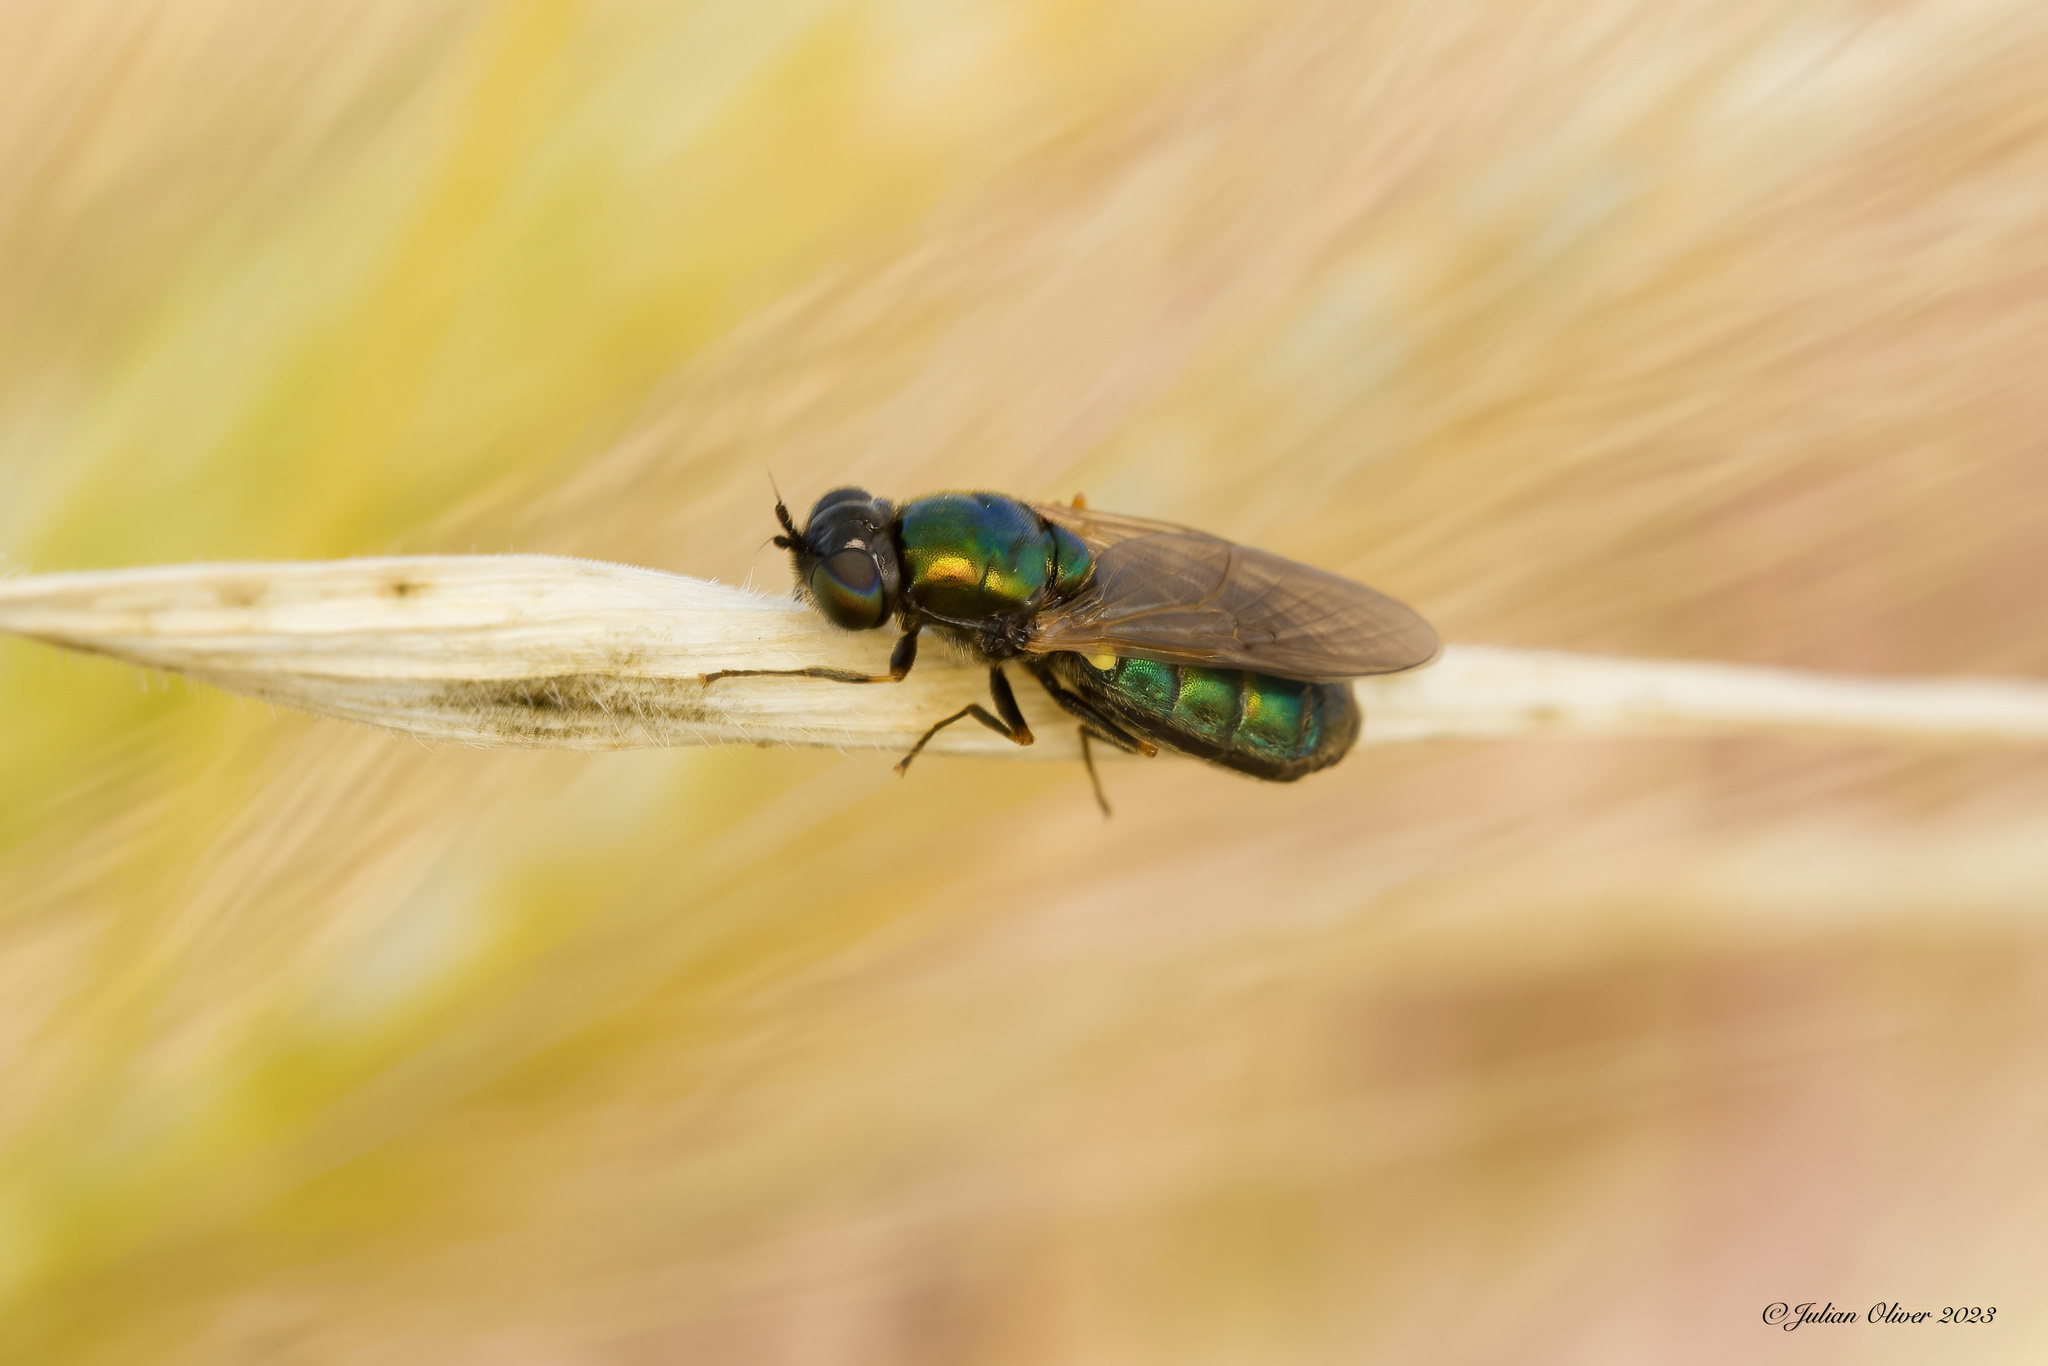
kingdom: Animalia
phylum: Arthropoda
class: Insecta
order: Diptera
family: Stratiomyidae
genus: Chloromyia
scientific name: Chloromyia formosa
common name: Soldier fly
